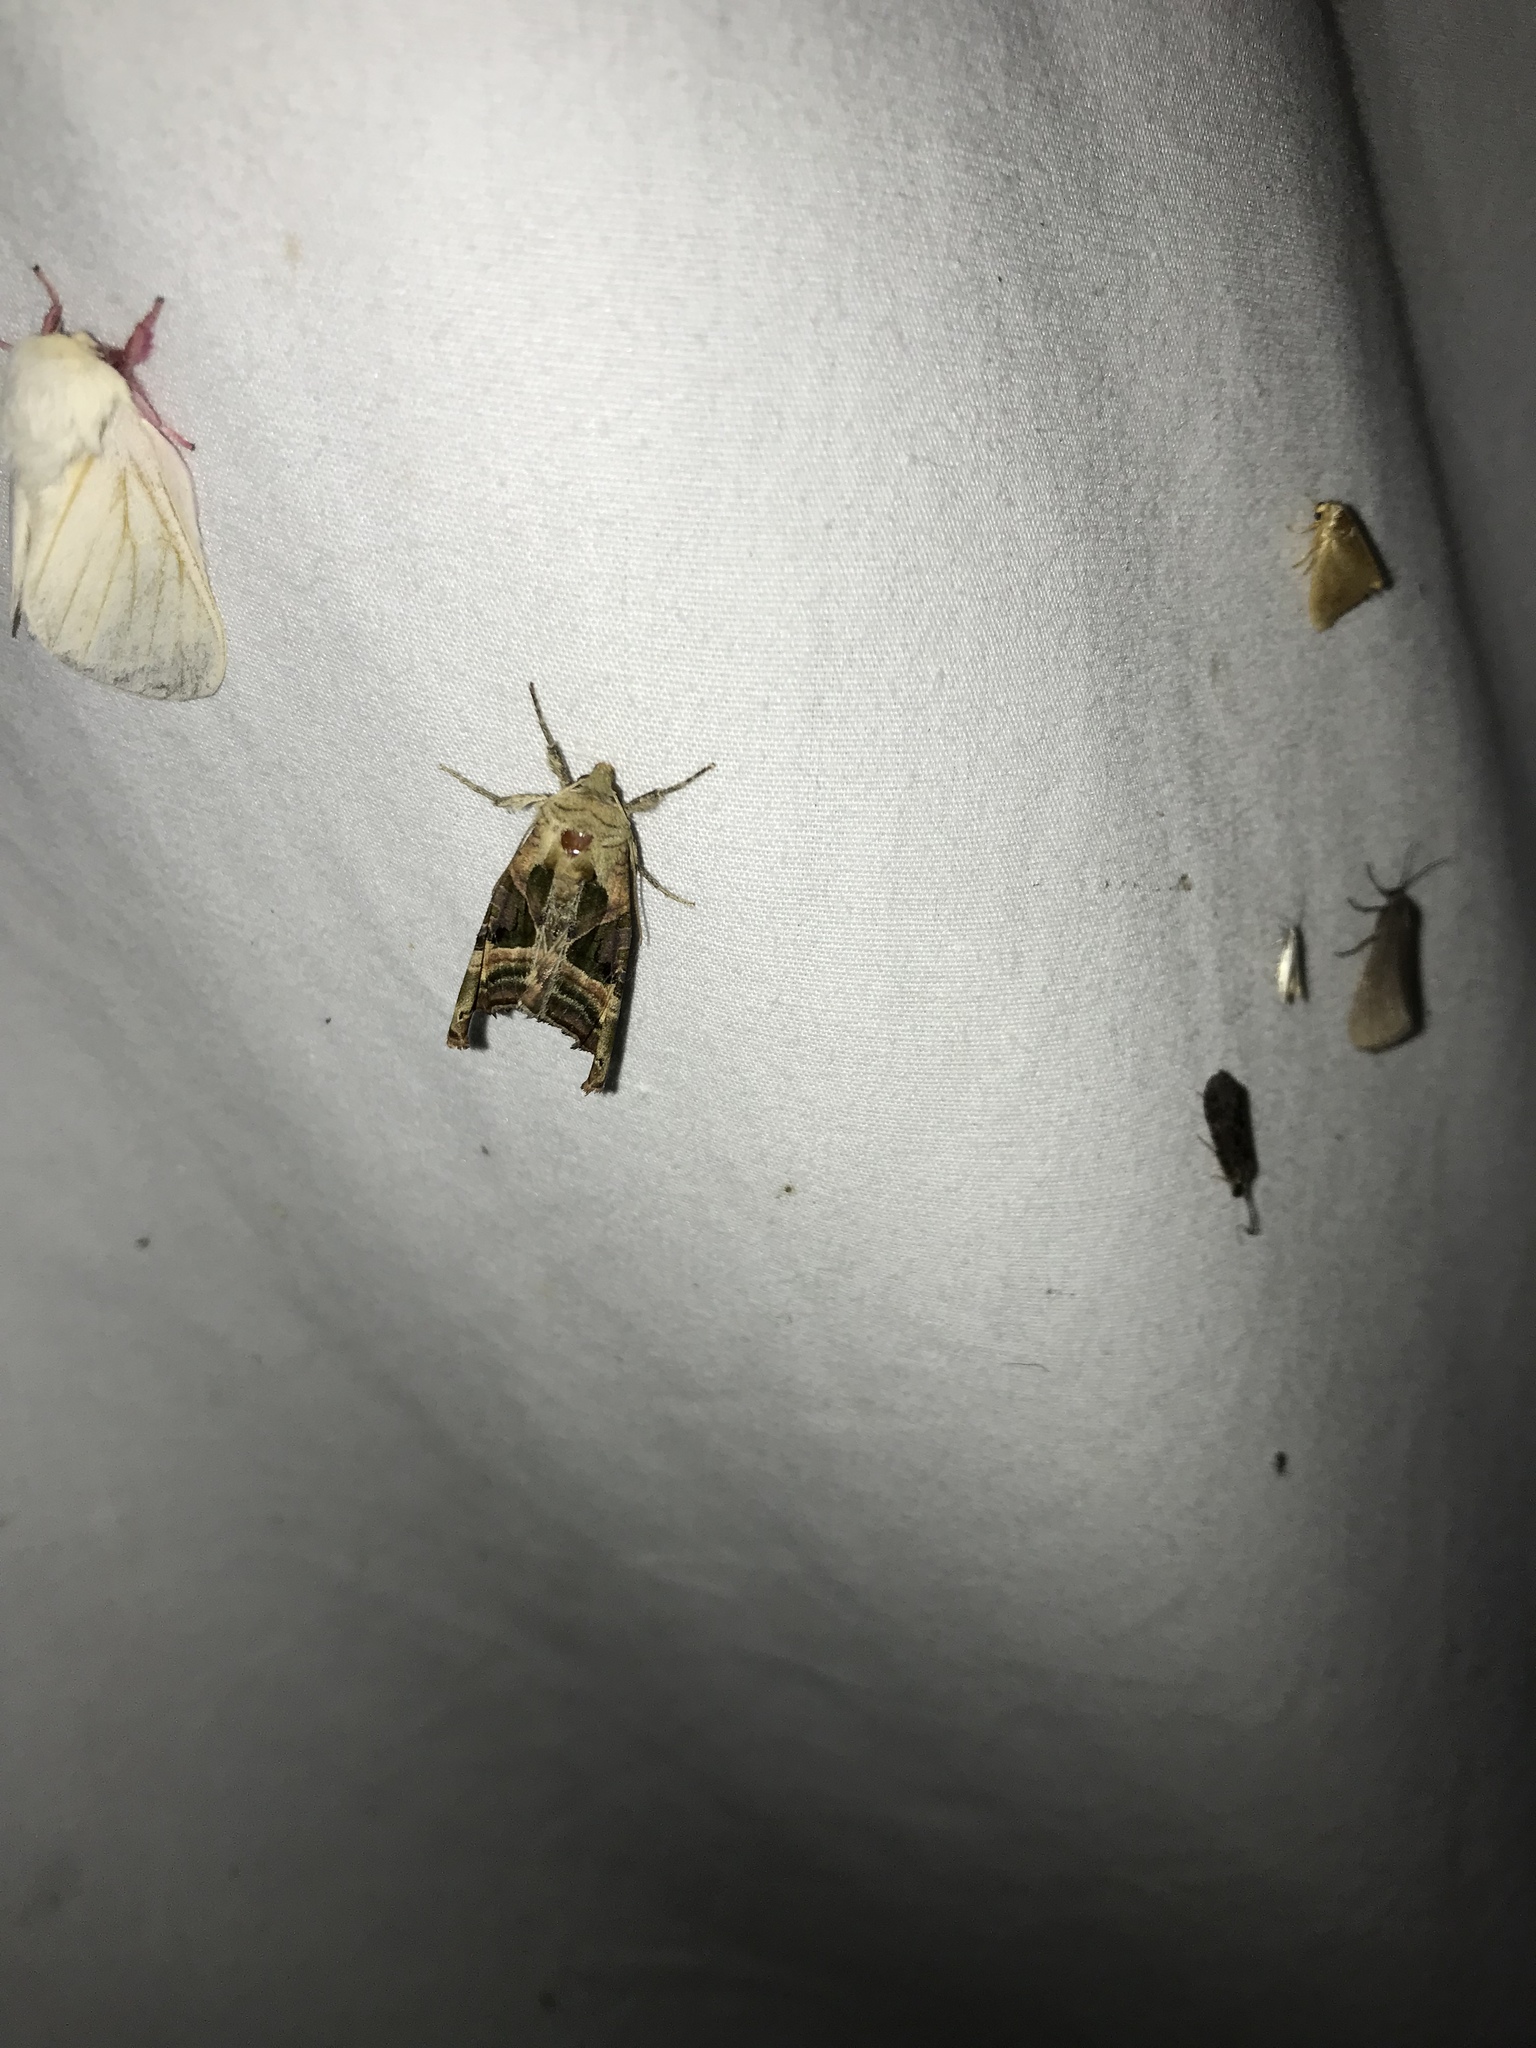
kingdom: Animalia
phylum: Arthropoda
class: Insecta
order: Lepidoptera
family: Noctuidae
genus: Phlogophora
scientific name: Phlogophora iris
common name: Olive angle shades
